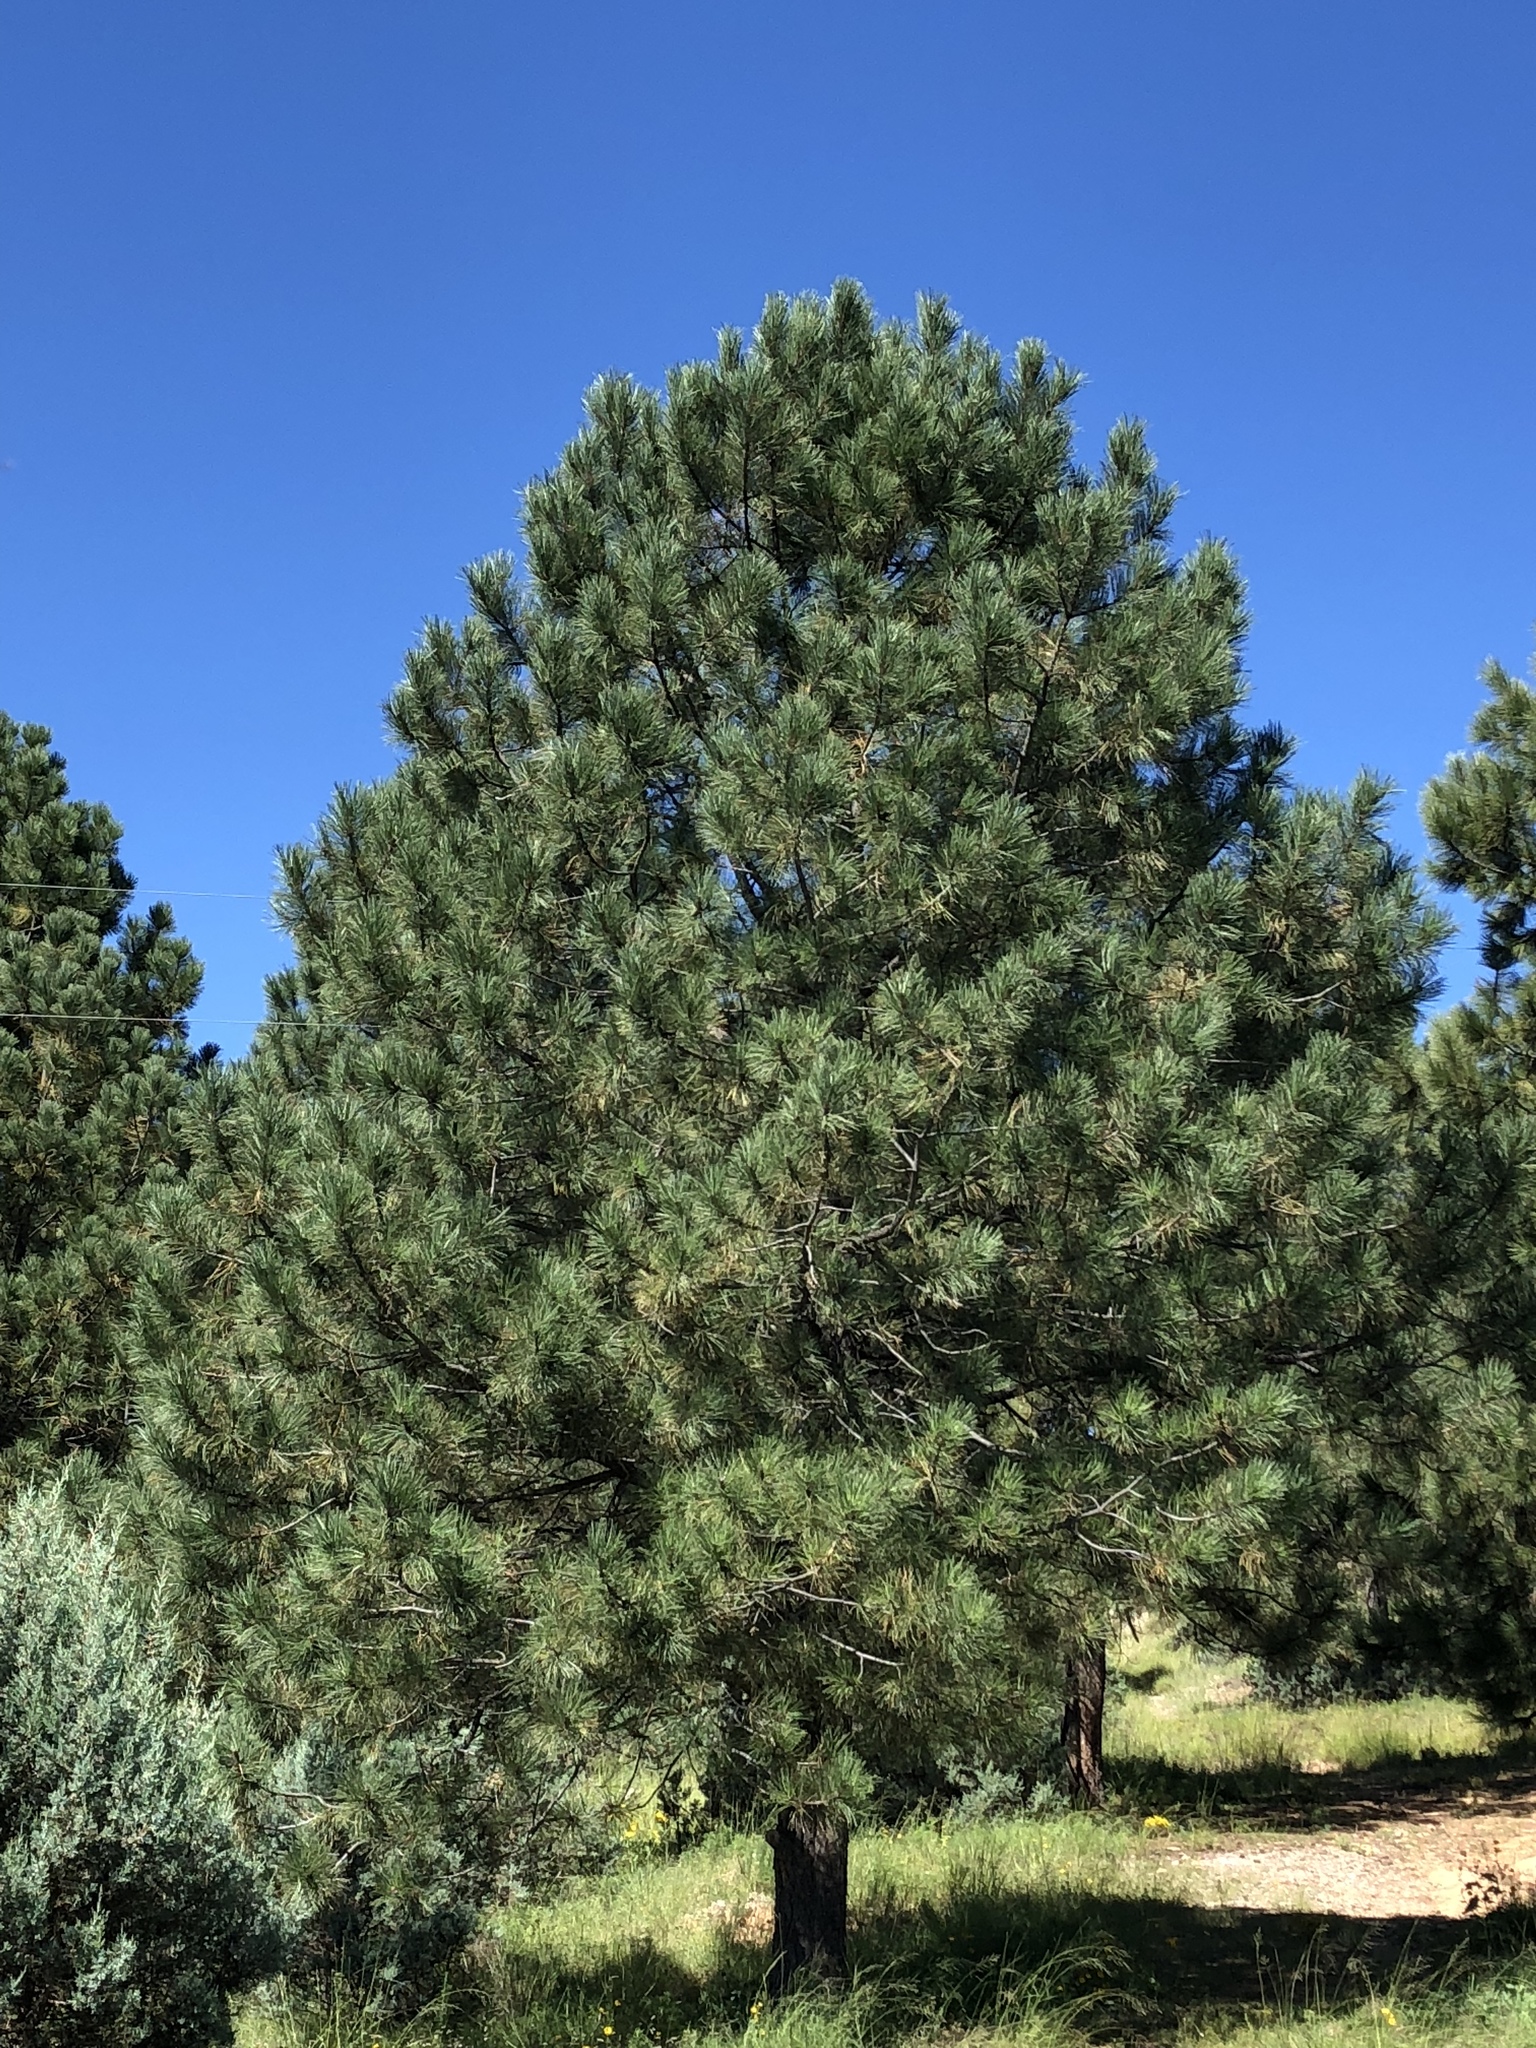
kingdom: Plantae
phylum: Tracheophyta
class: Pinopsida
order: Pinales
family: Pinaceae
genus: Pinus
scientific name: Pinus ponderosa
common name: Western yellow-pine
